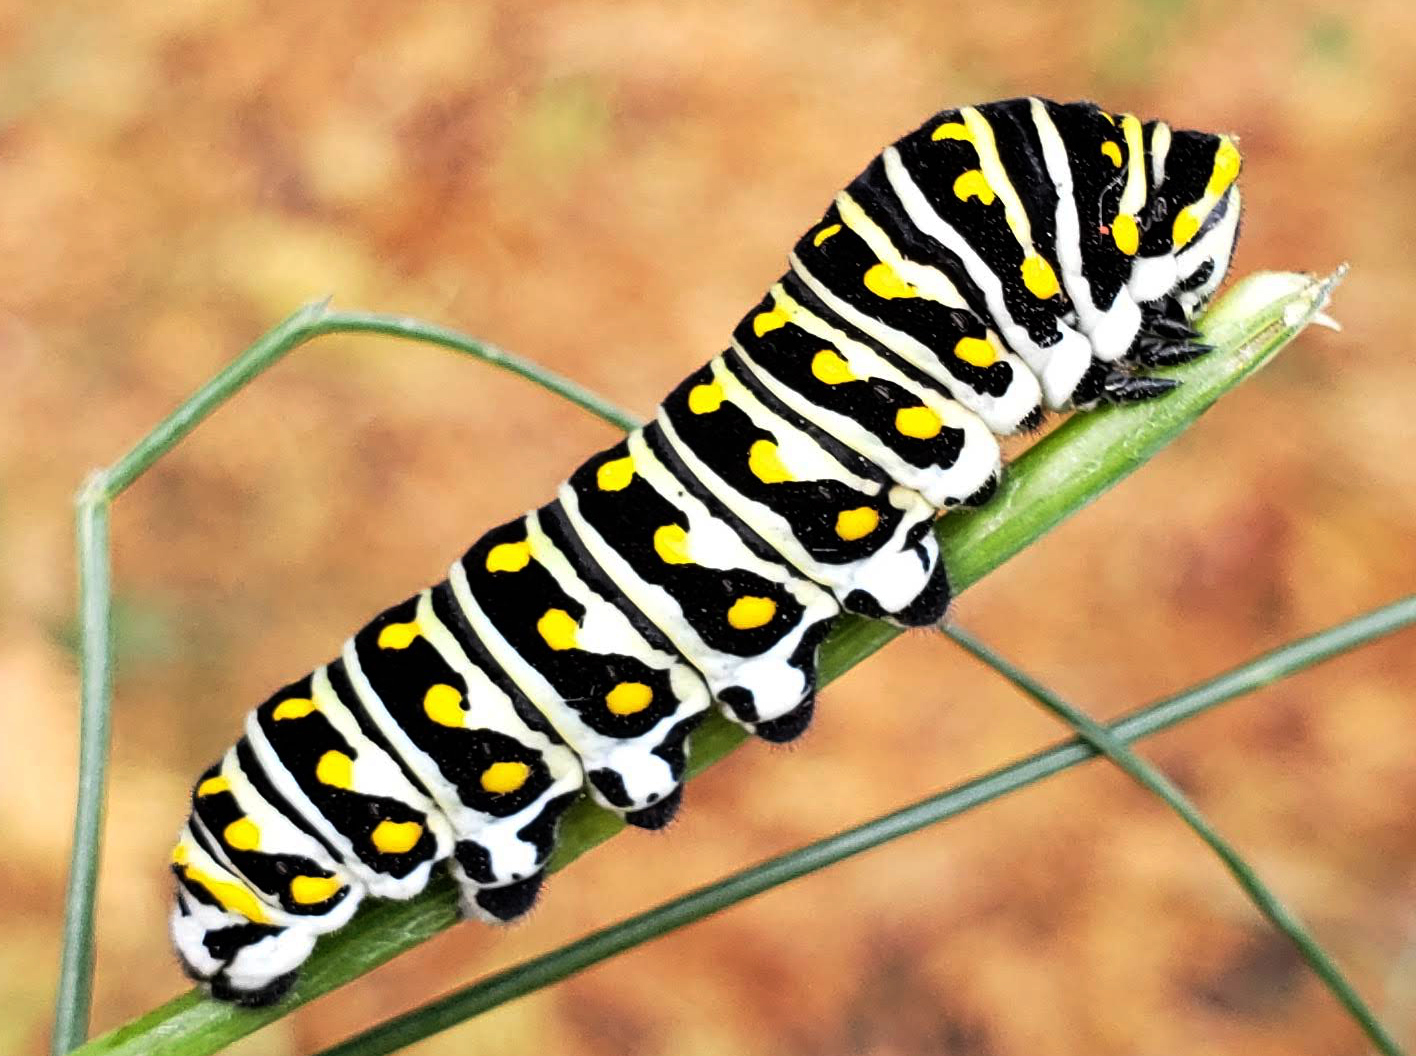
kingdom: Animalia
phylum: Arthropoda
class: Insecta
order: Lepidoptera
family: Papilionidae
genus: Papilio
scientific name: Papilio polyxenes
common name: Black swallowtail
